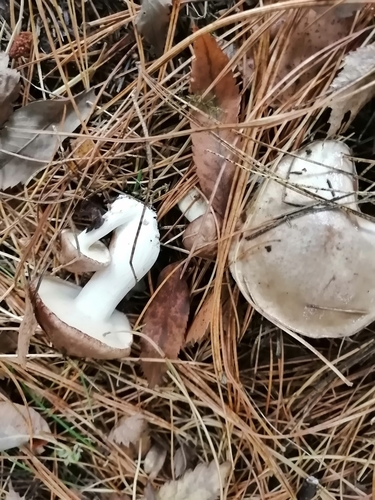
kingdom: Fungi
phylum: Basidiomycota
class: Agaricomycetes
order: Boletales
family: Suillaceae
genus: Suillus
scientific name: Suillus placidus
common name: Slippery white bolete
